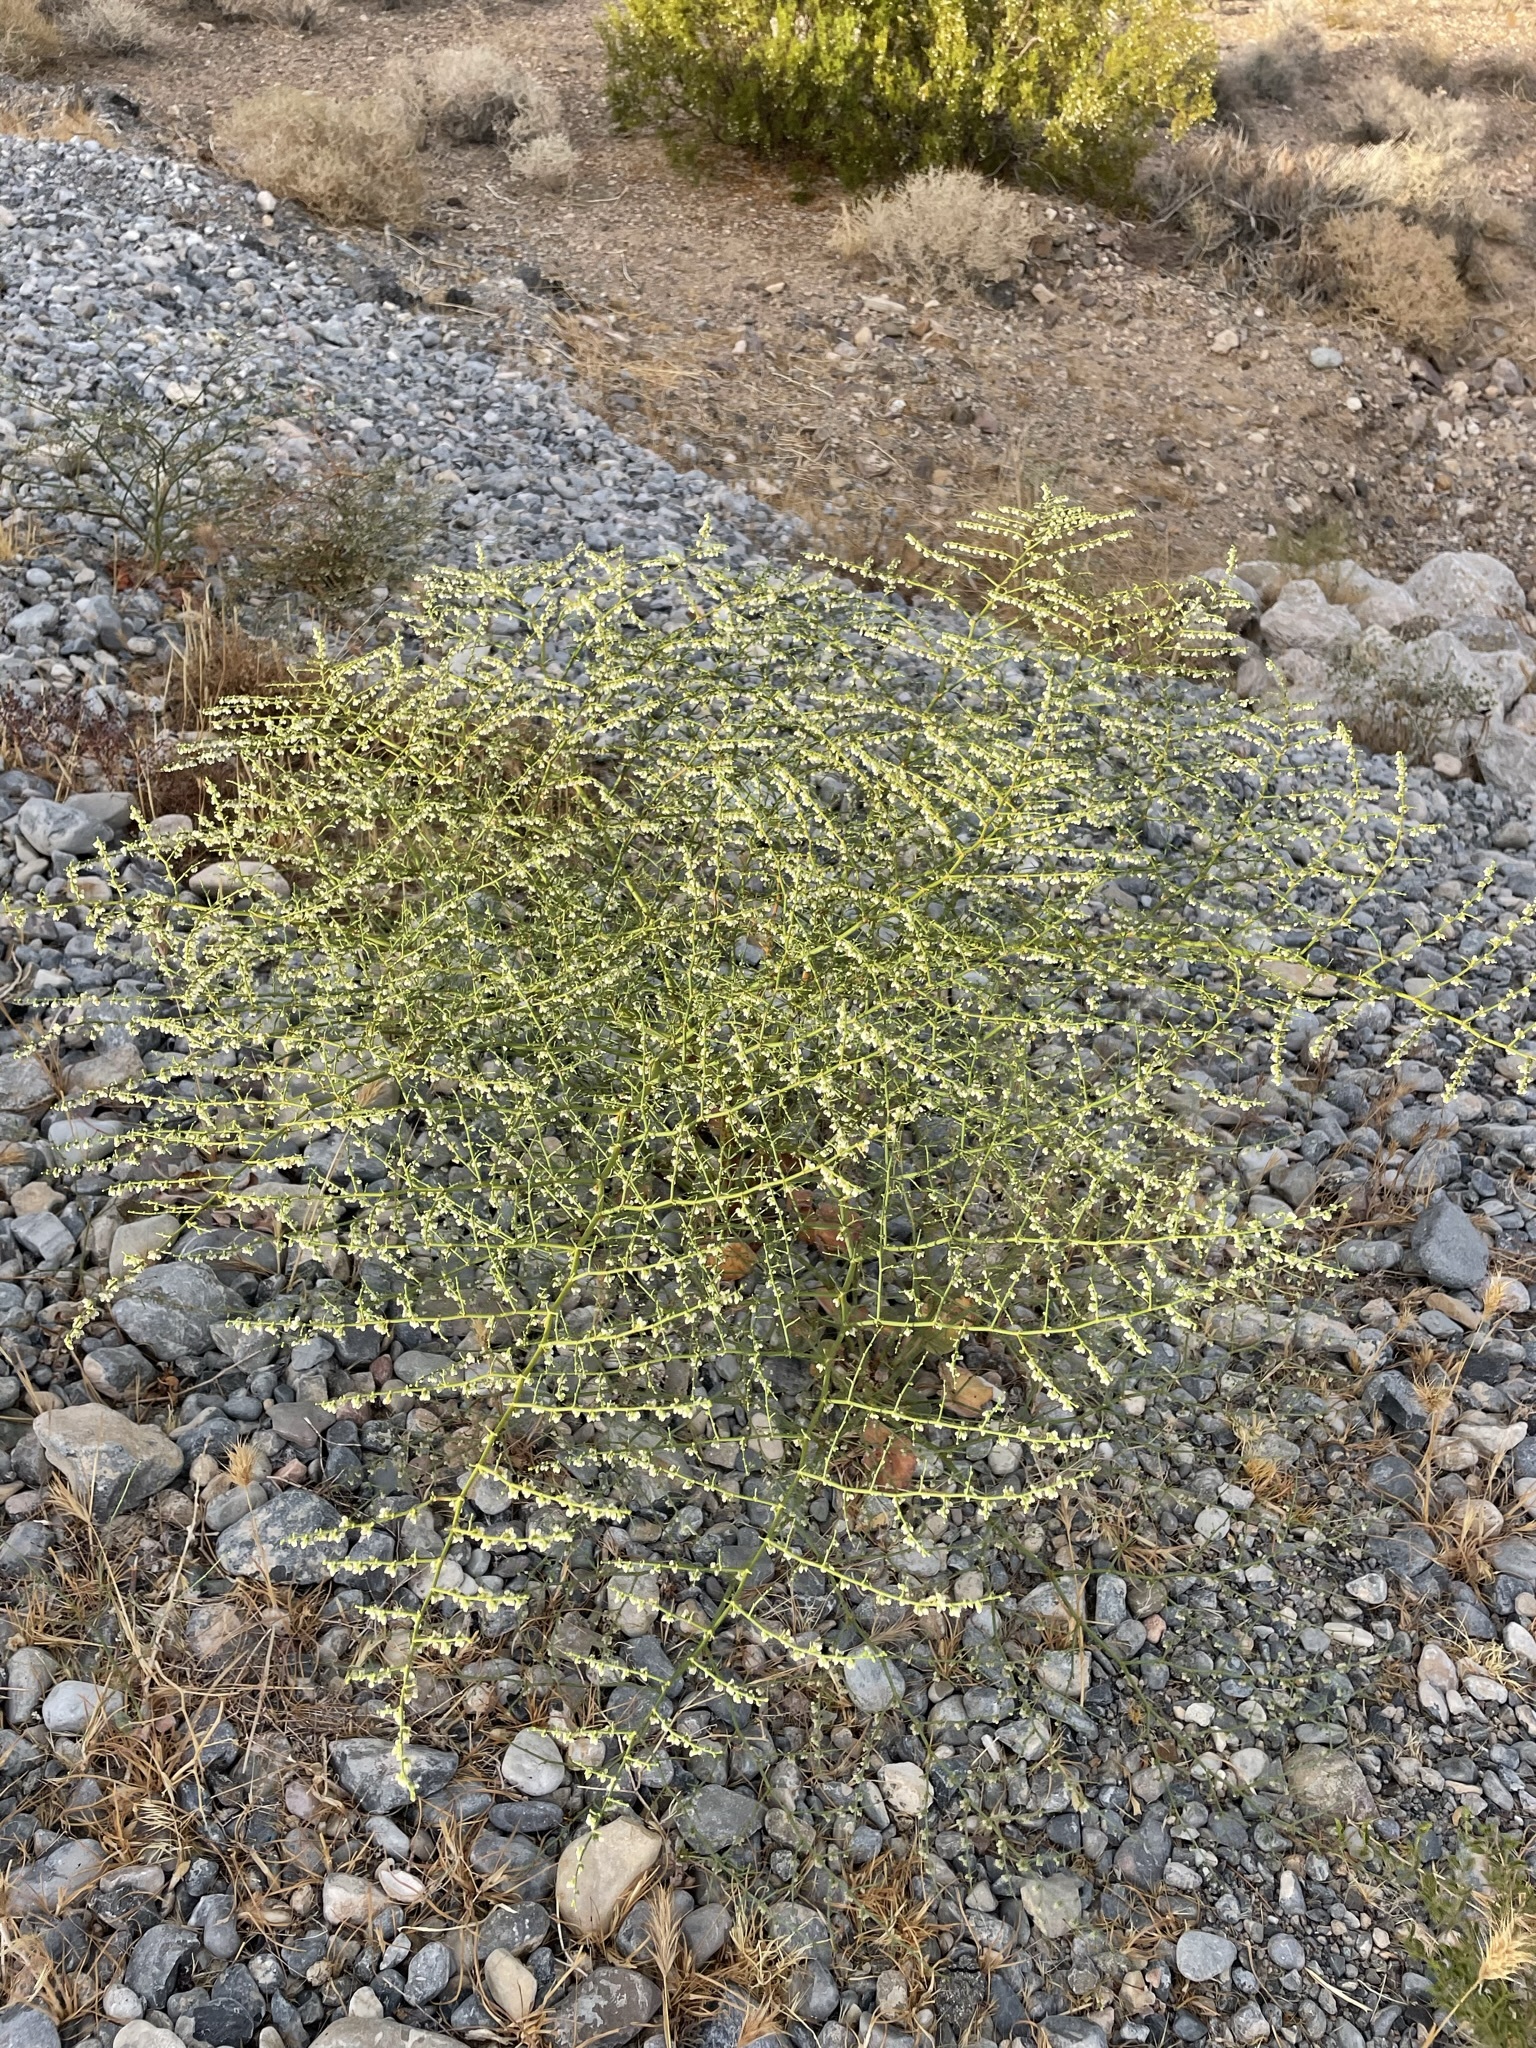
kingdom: Plantae
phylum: Tracheophyta
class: Magnoliopsida
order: Caryophyllales
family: Polygonaceae
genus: Eriogonum
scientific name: Eriogonum deflexum
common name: Skeleton-weed
